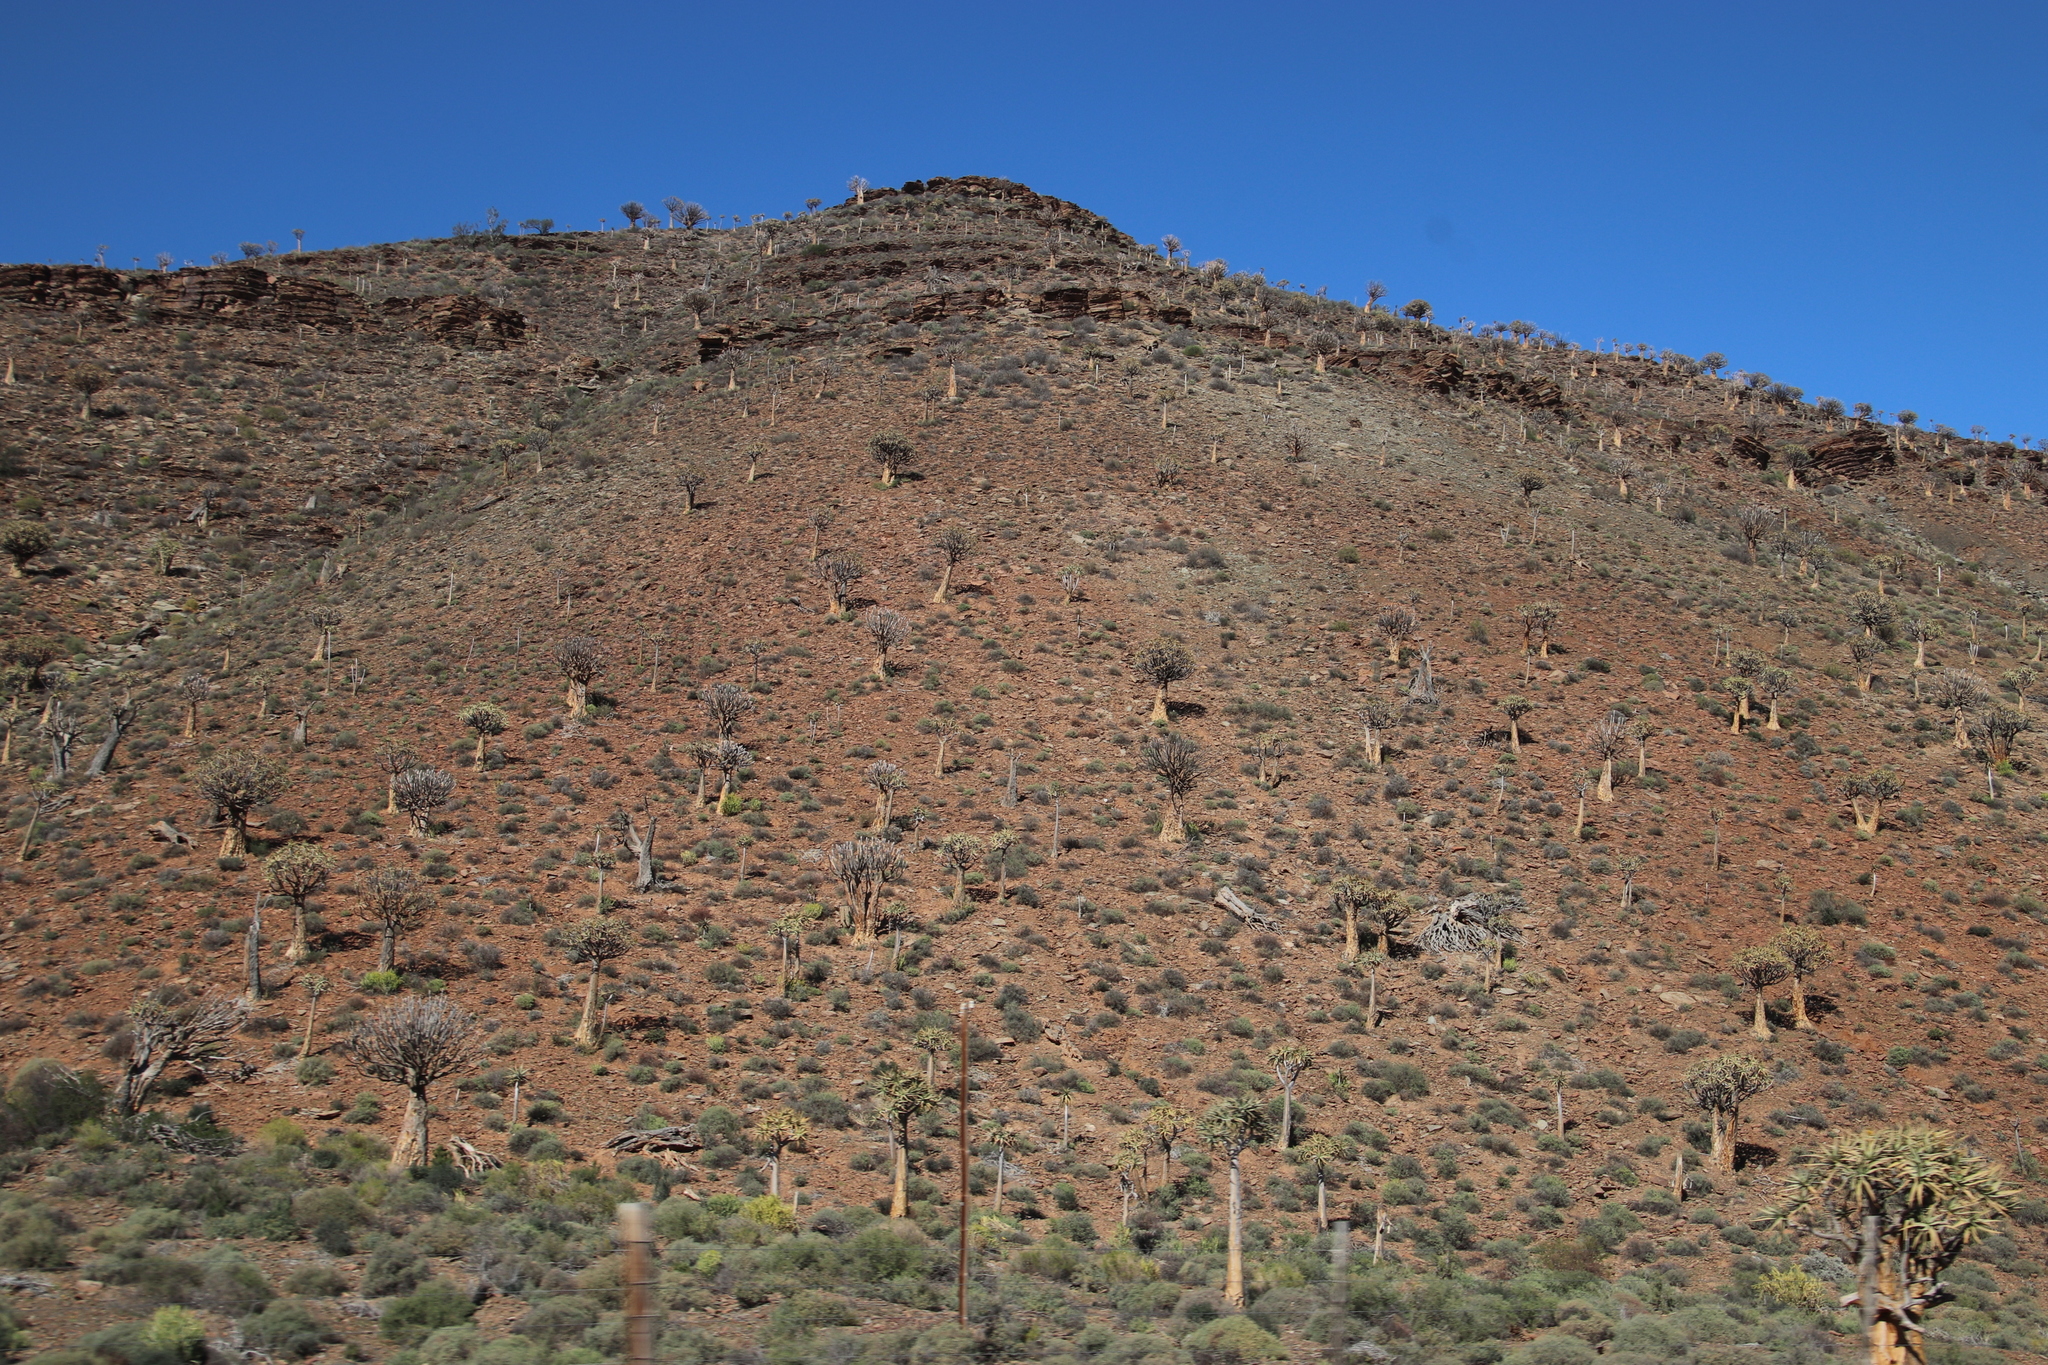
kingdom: Plantae
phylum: Tracheophyta
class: Liliopsida
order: Asparagales
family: Asphodelaceae
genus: Aloidendron
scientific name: Aloidendron dichotomum
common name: Quiver tree
